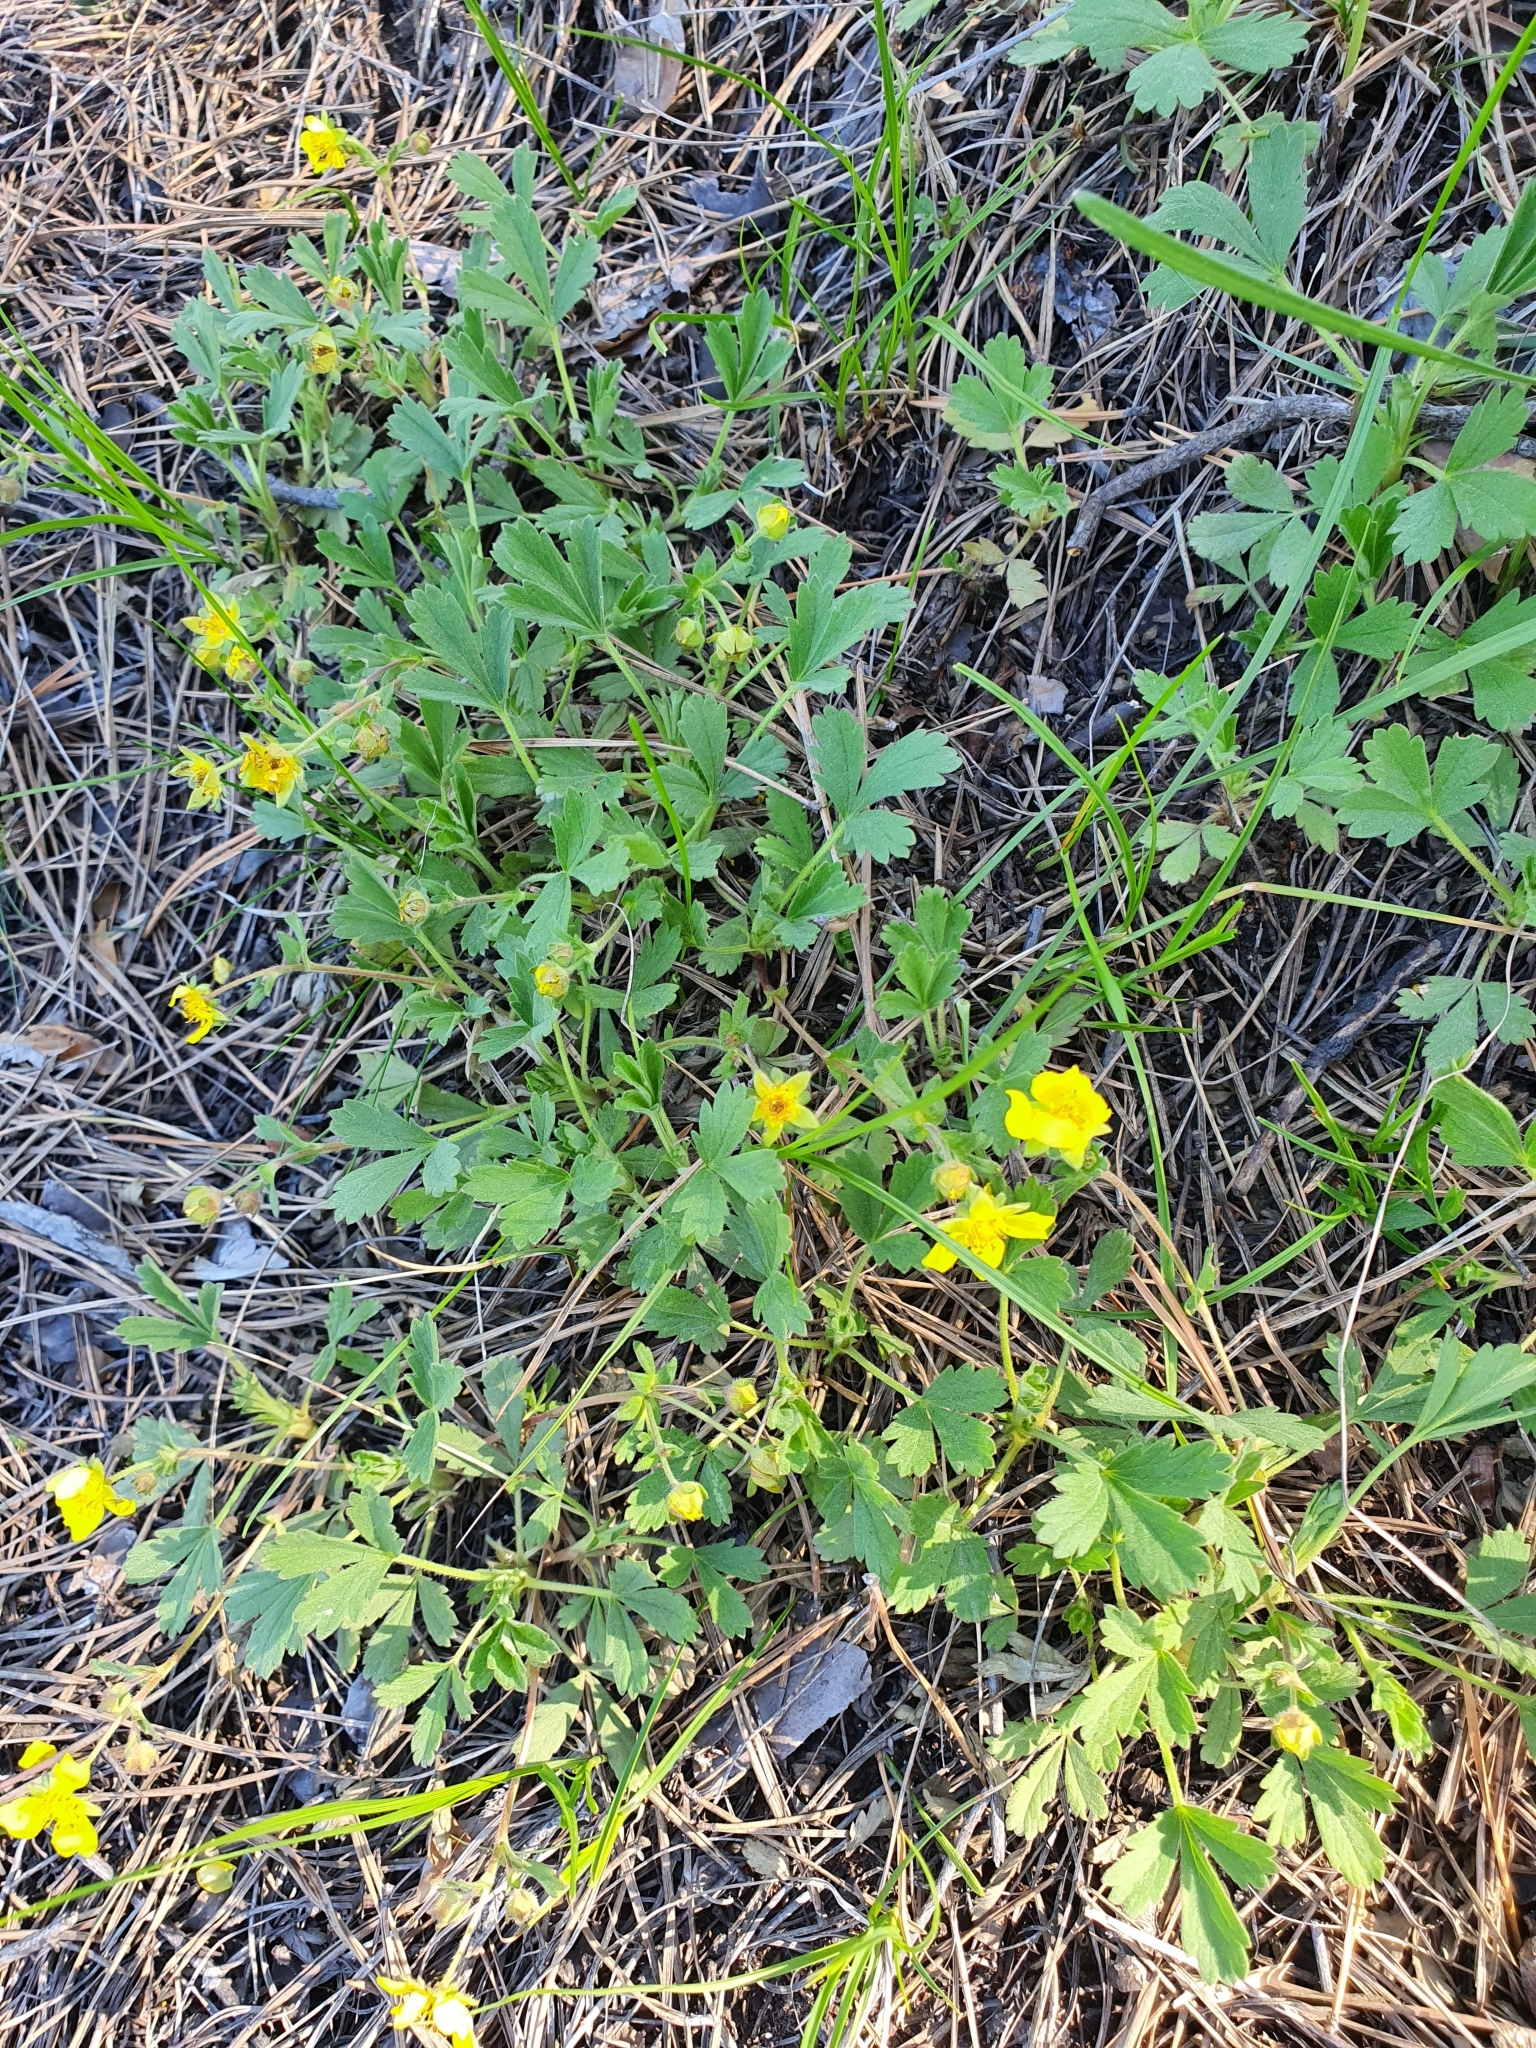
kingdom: Plantae
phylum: Tracheophyta
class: Magnoliopsida
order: Rosales
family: Rosaceae
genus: Potentilla
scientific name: Potentilla incana
